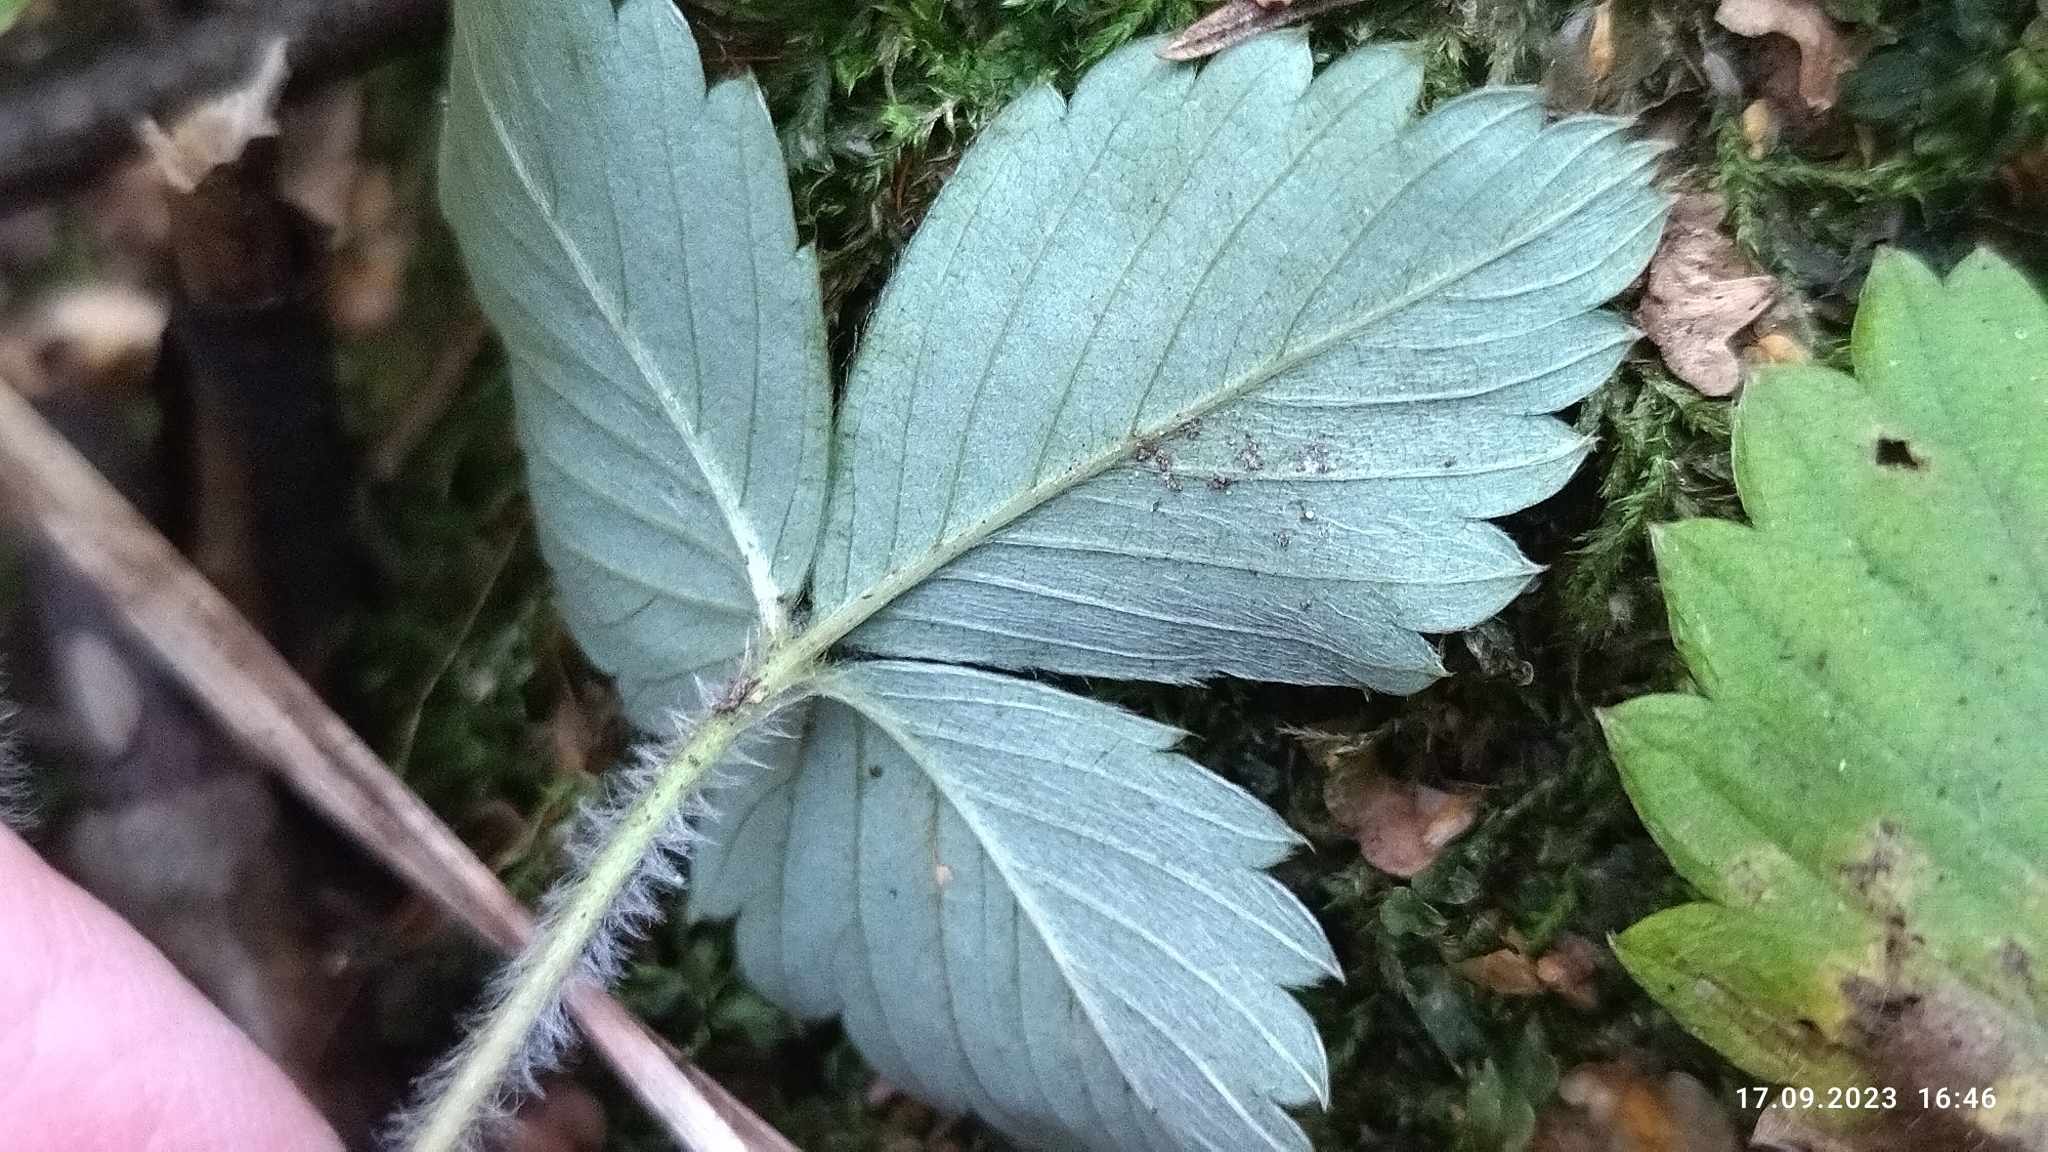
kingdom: Plantae
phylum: Tracheophyta
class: Magnoliopsida
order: Rosales
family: Rosaceae
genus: Fragaria
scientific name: Fragaria vesca
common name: Wild strawberry
